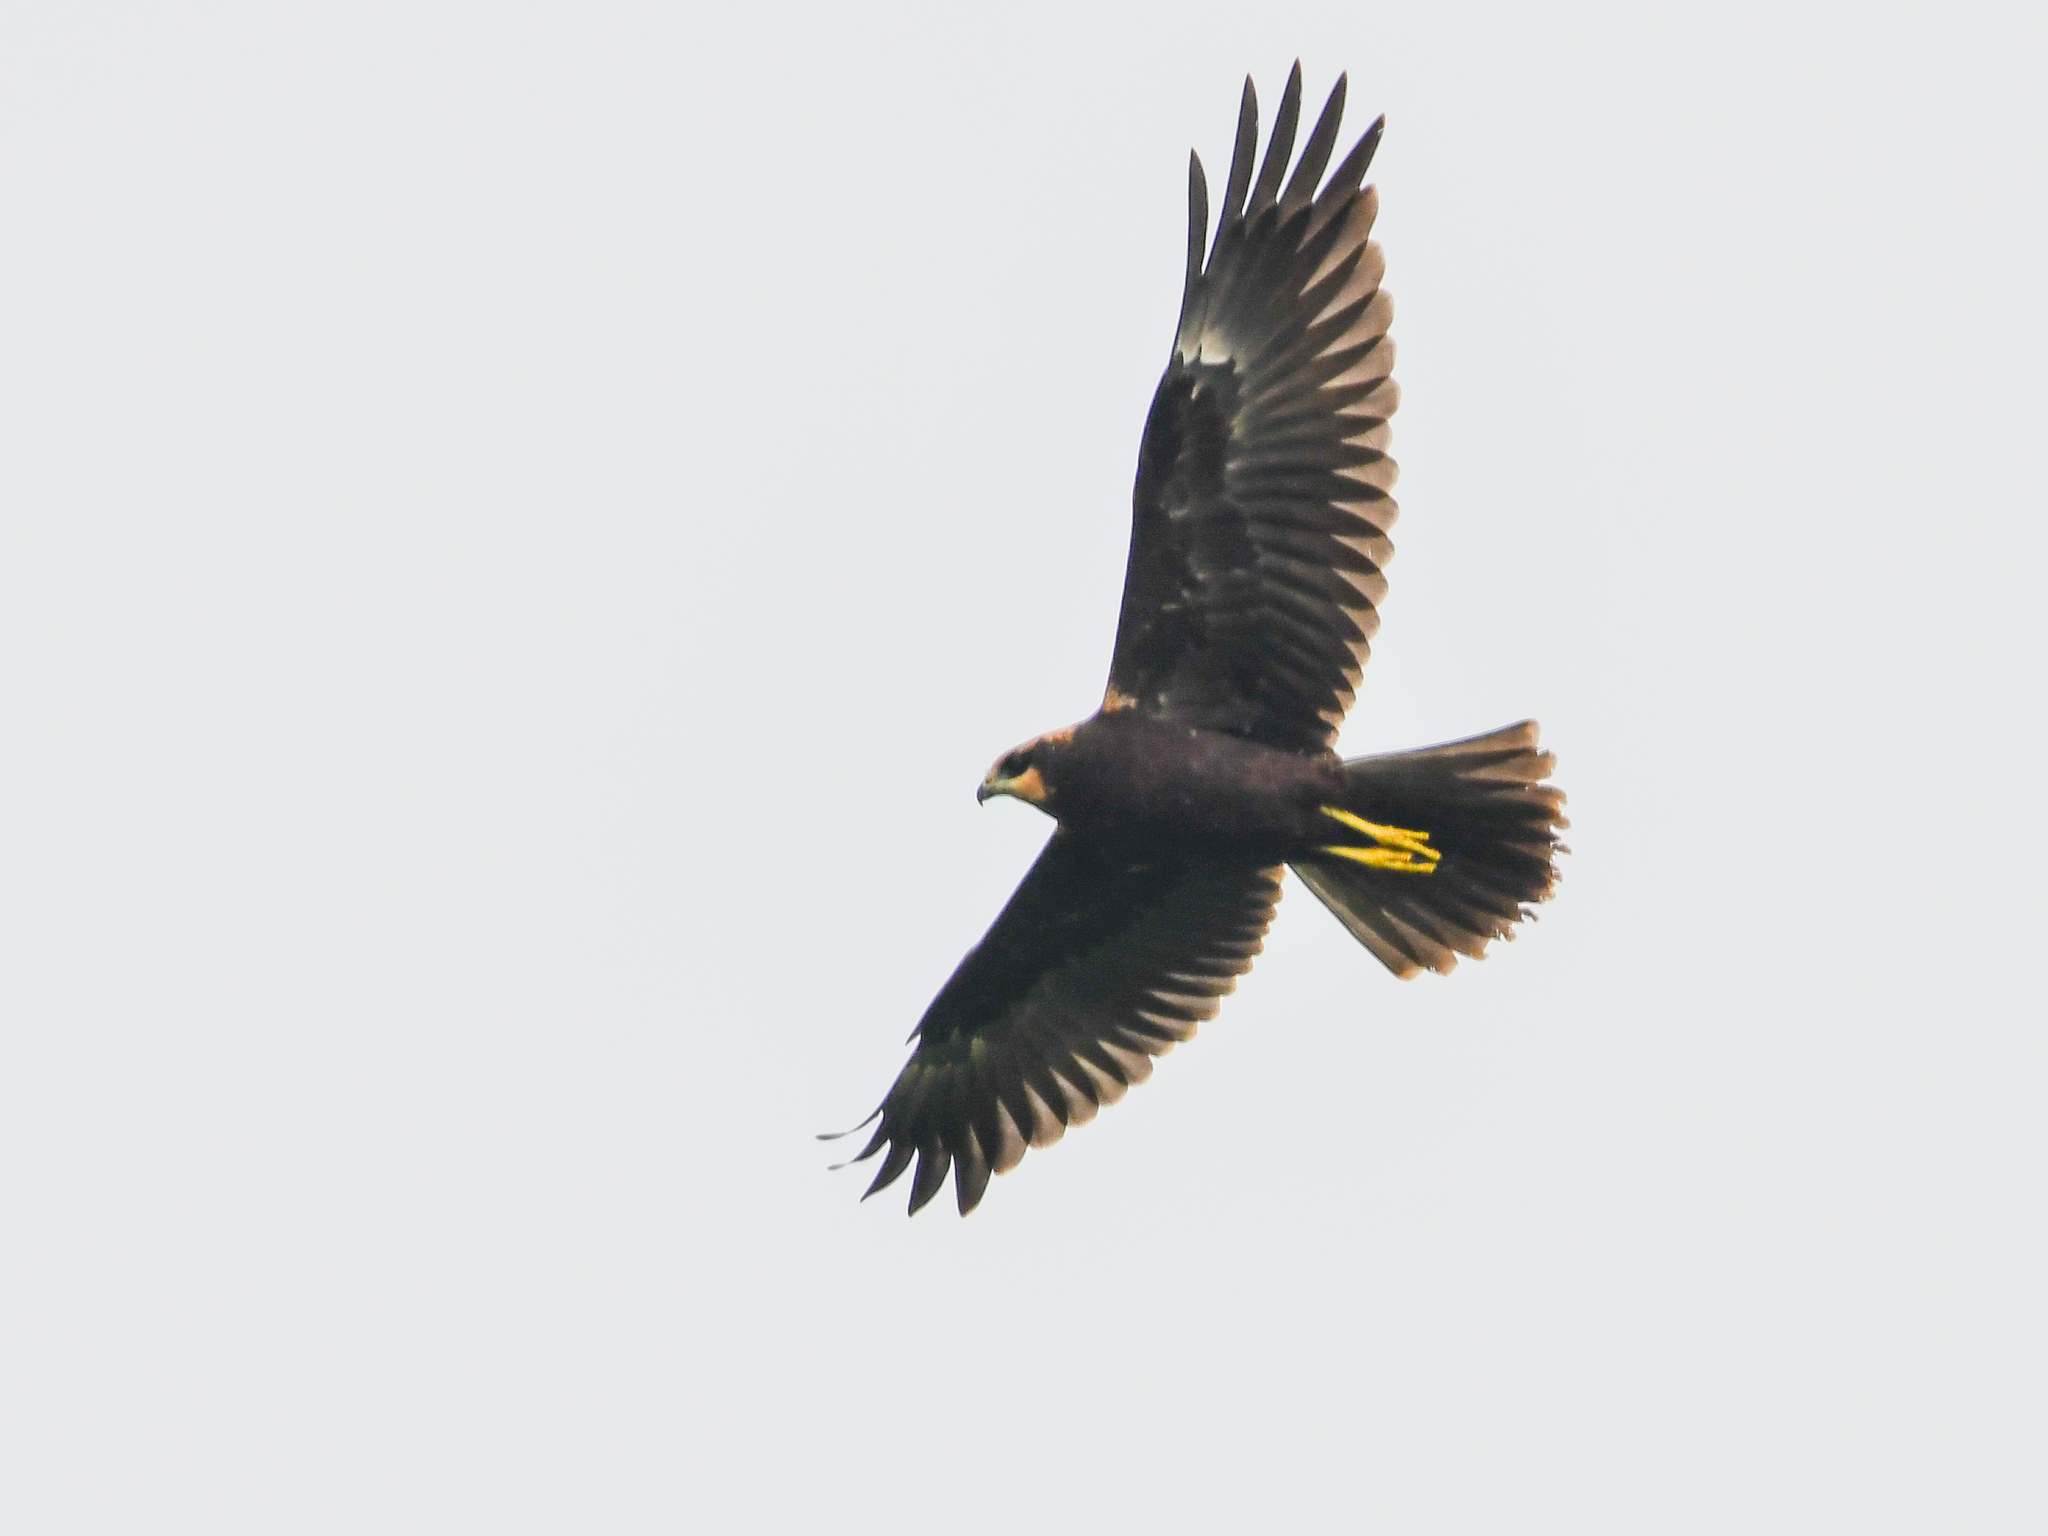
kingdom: Animalia
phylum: Chordata
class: Aves
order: Accipitriformes
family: Accipitridae
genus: Circus
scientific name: Circus aeruginosus
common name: Western marsh harrier
